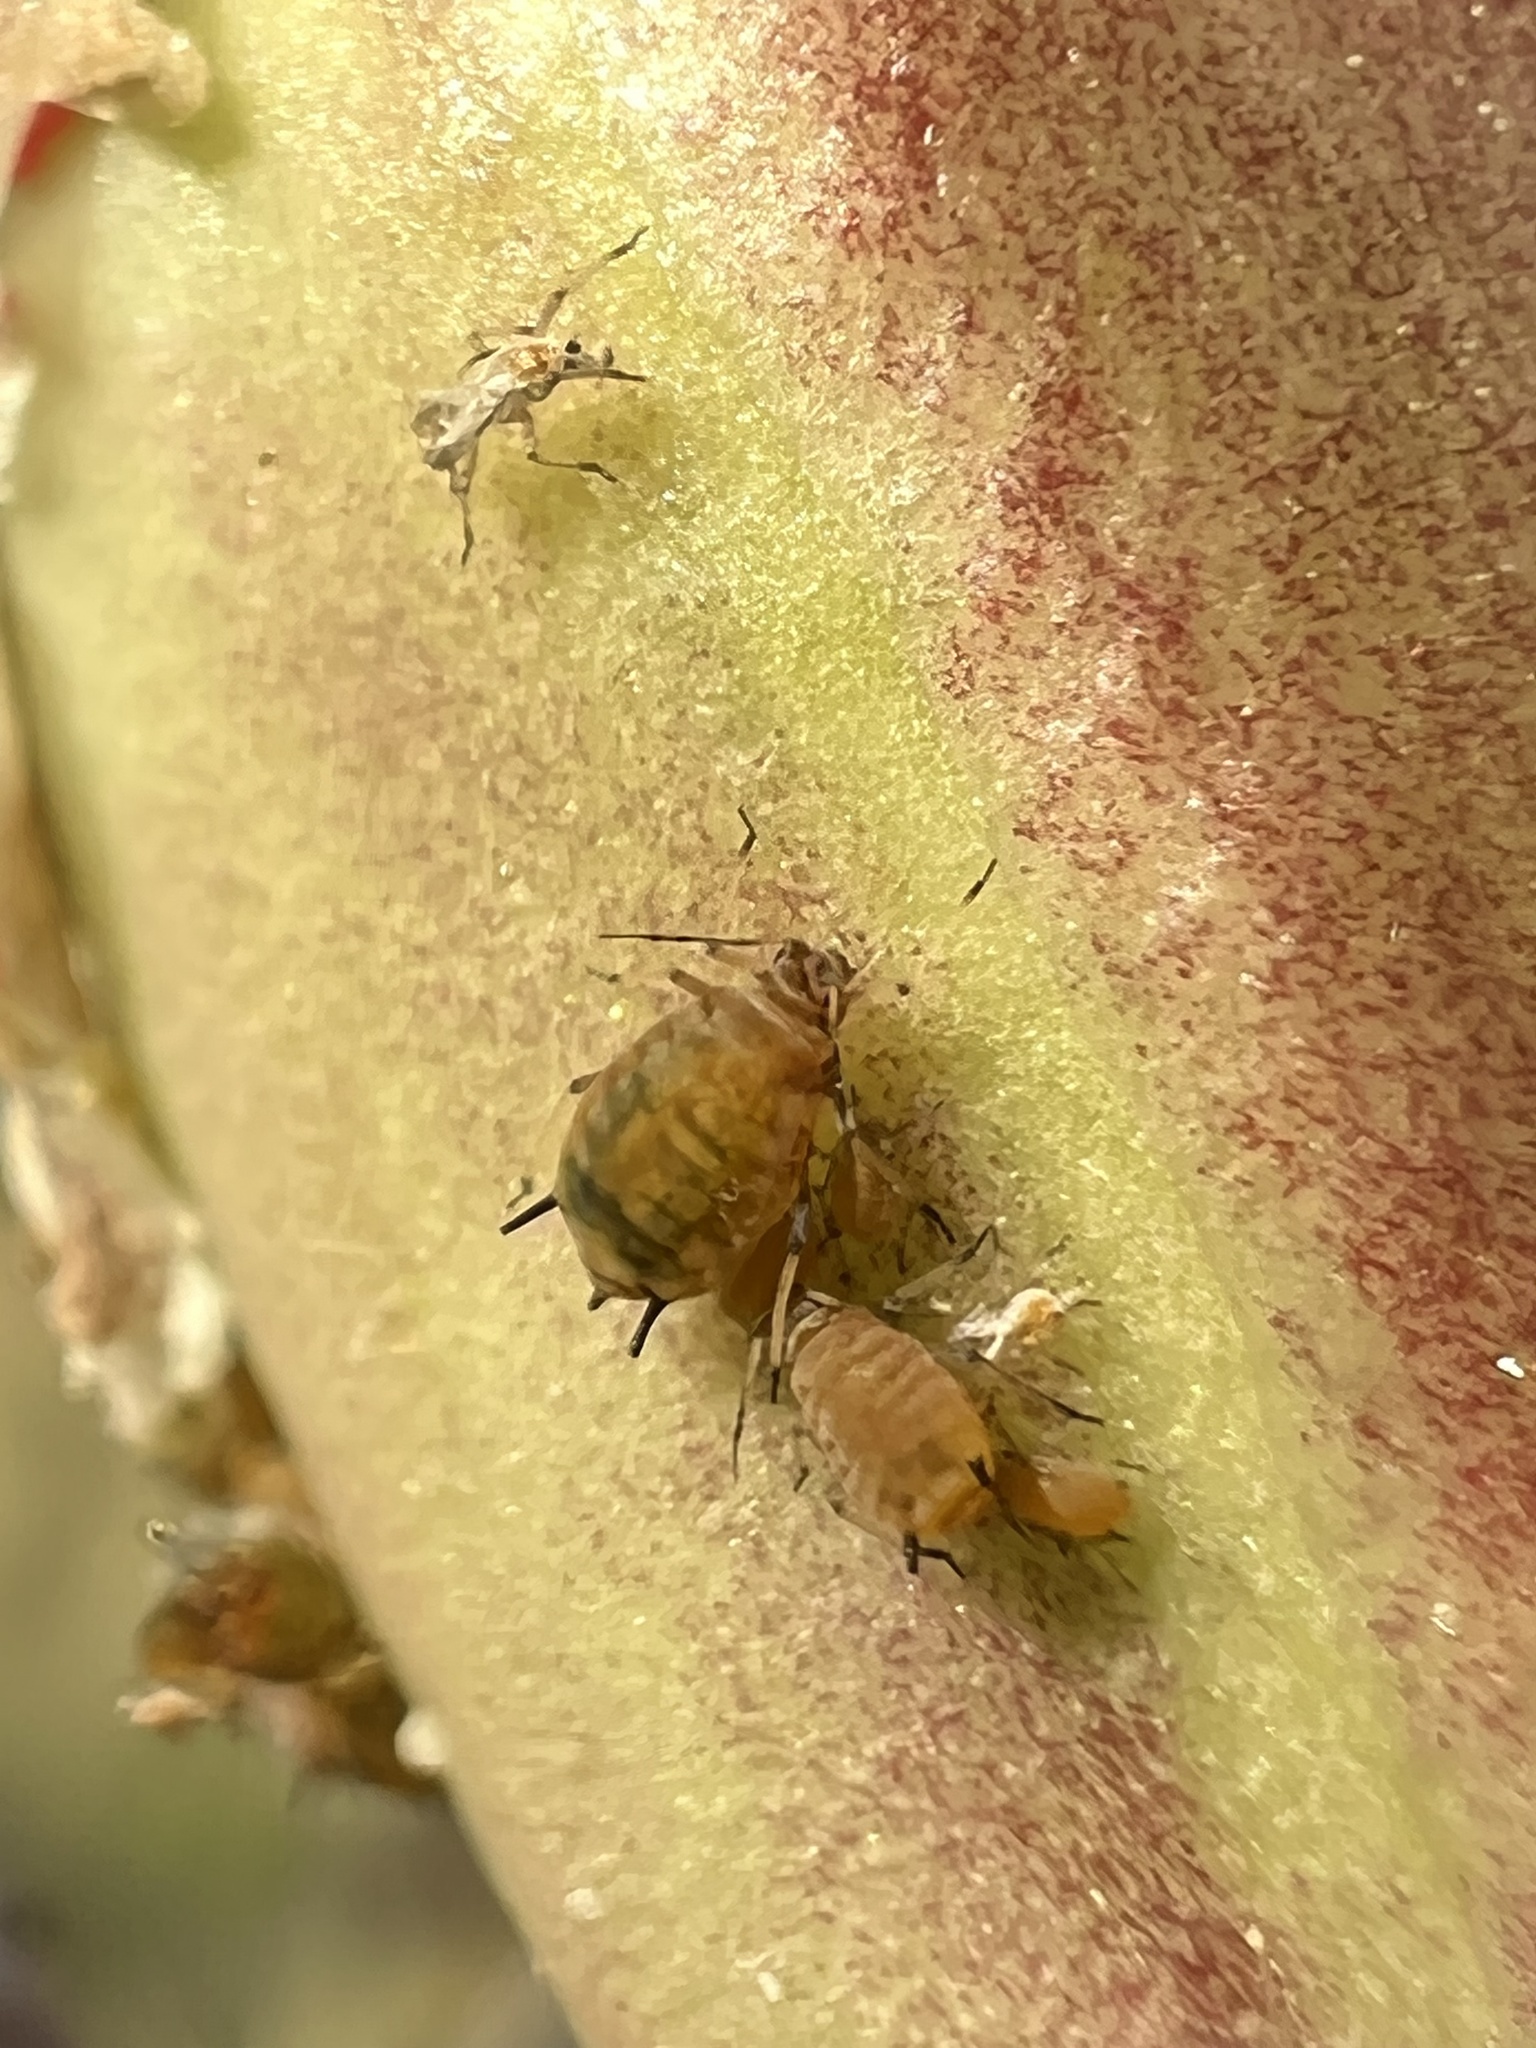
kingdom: Animalia
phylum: Arthropoda
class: Insecta
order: Hemiptera
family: Aphididae
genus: Aphis
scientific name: Aphis asclepiadis
